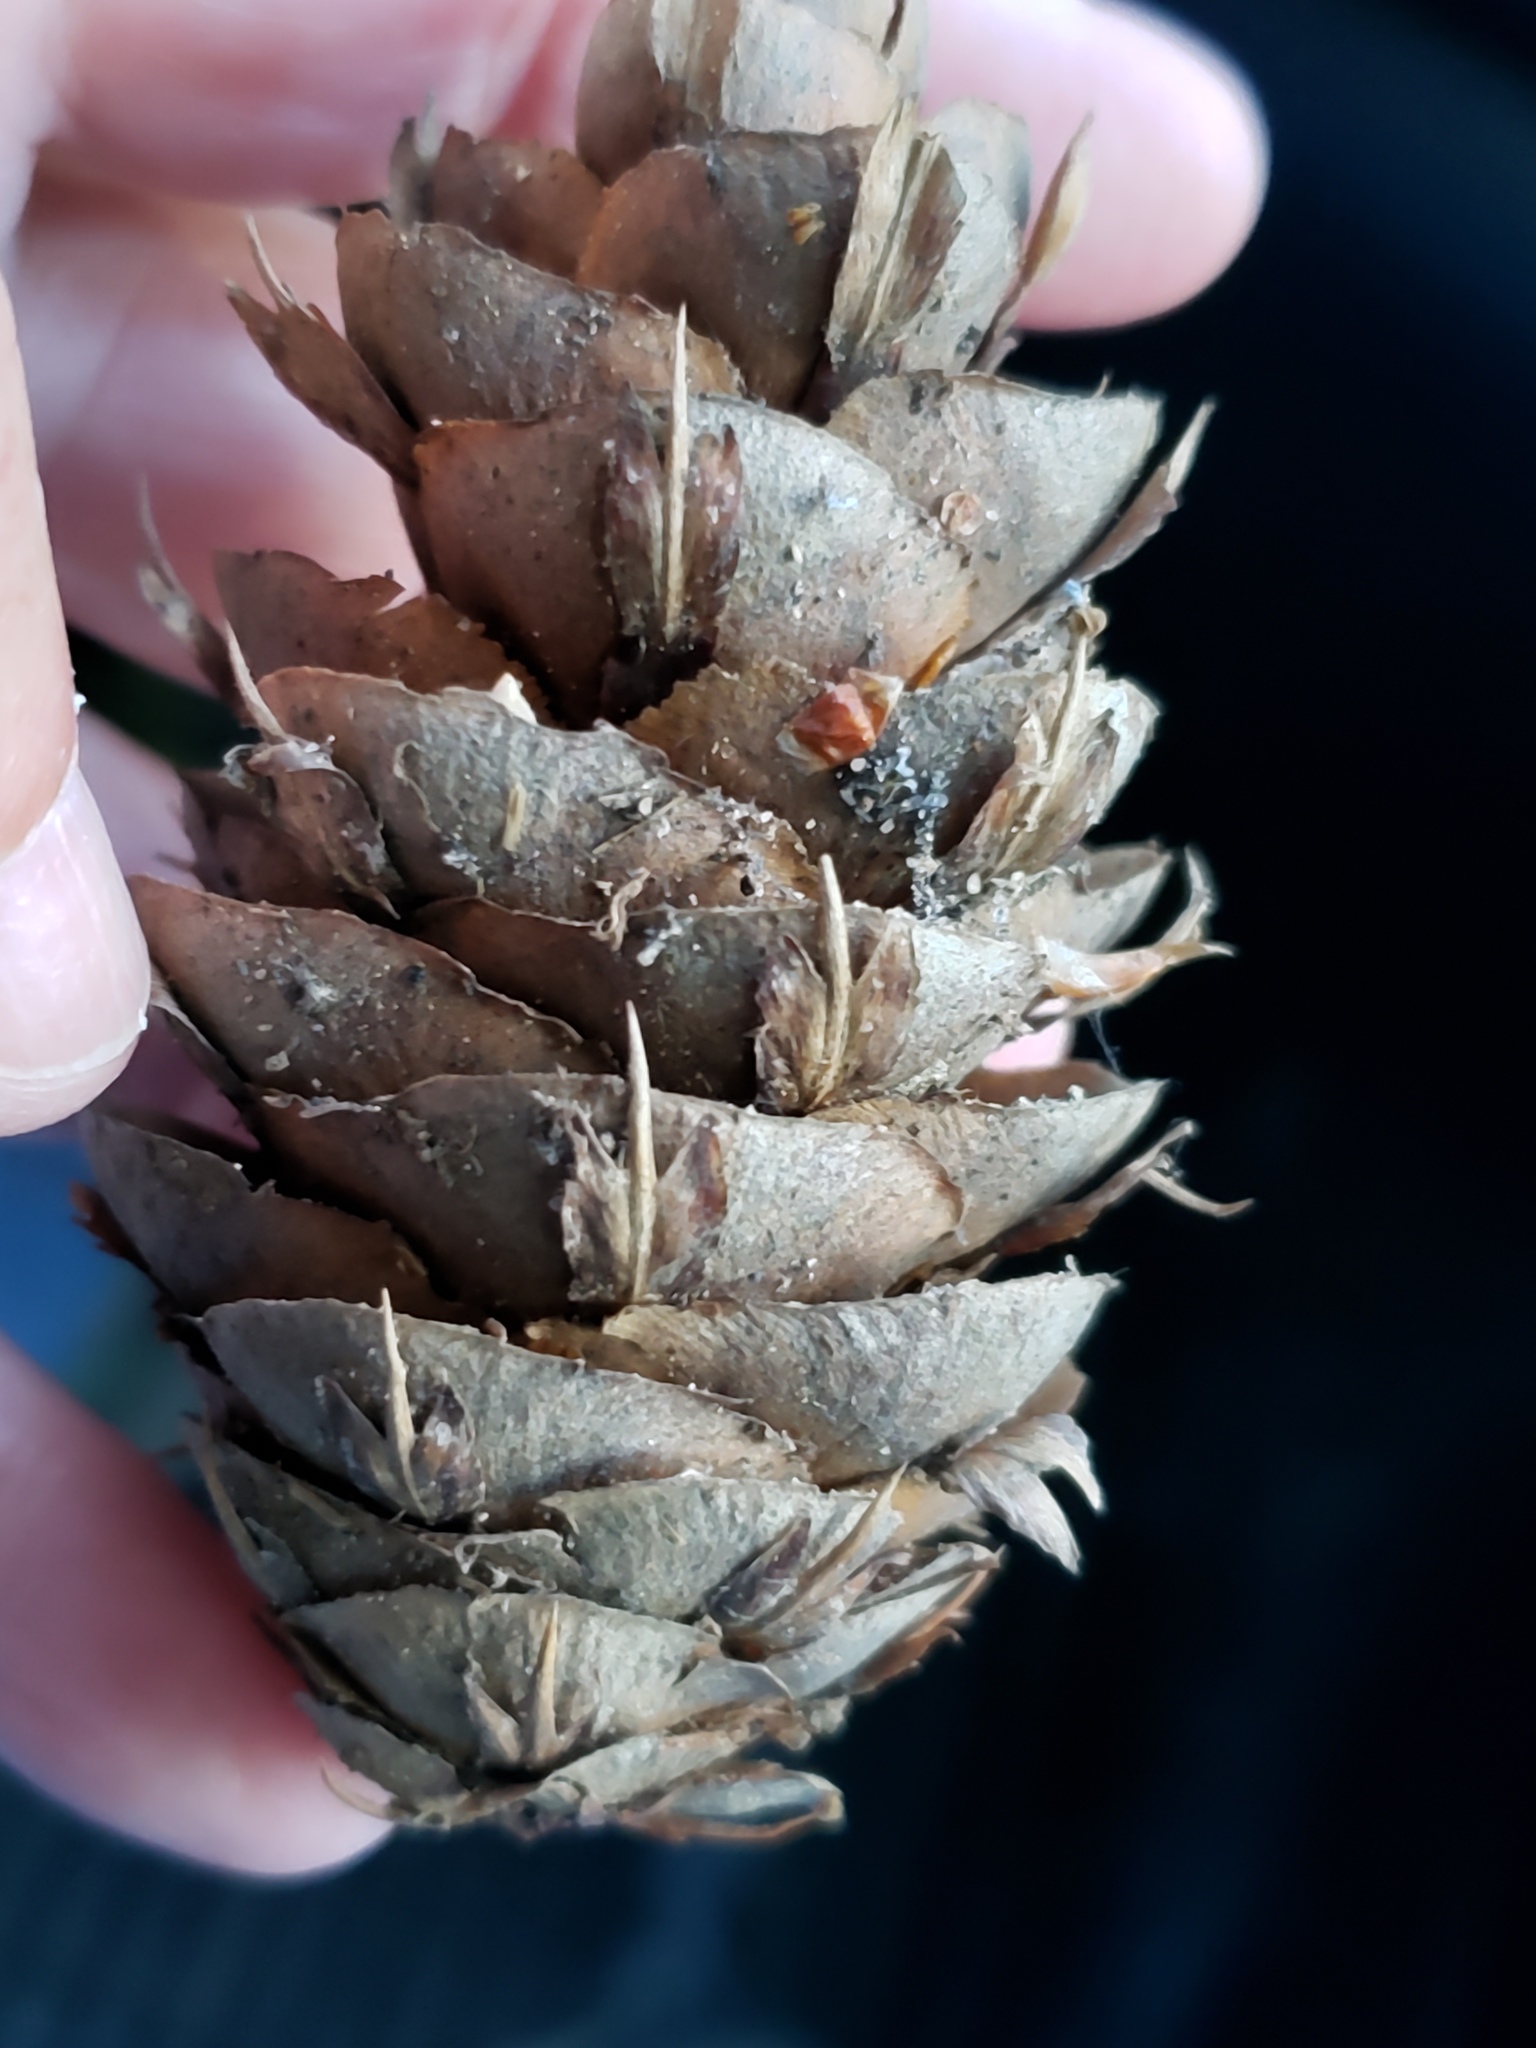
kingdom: Plantae
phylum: Tracheophyta
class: Pinopsida
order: Pinales
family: Pinaceae
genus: Pseudotsuga
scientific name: Pseudotsuga menziesii
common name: Douglas fir
